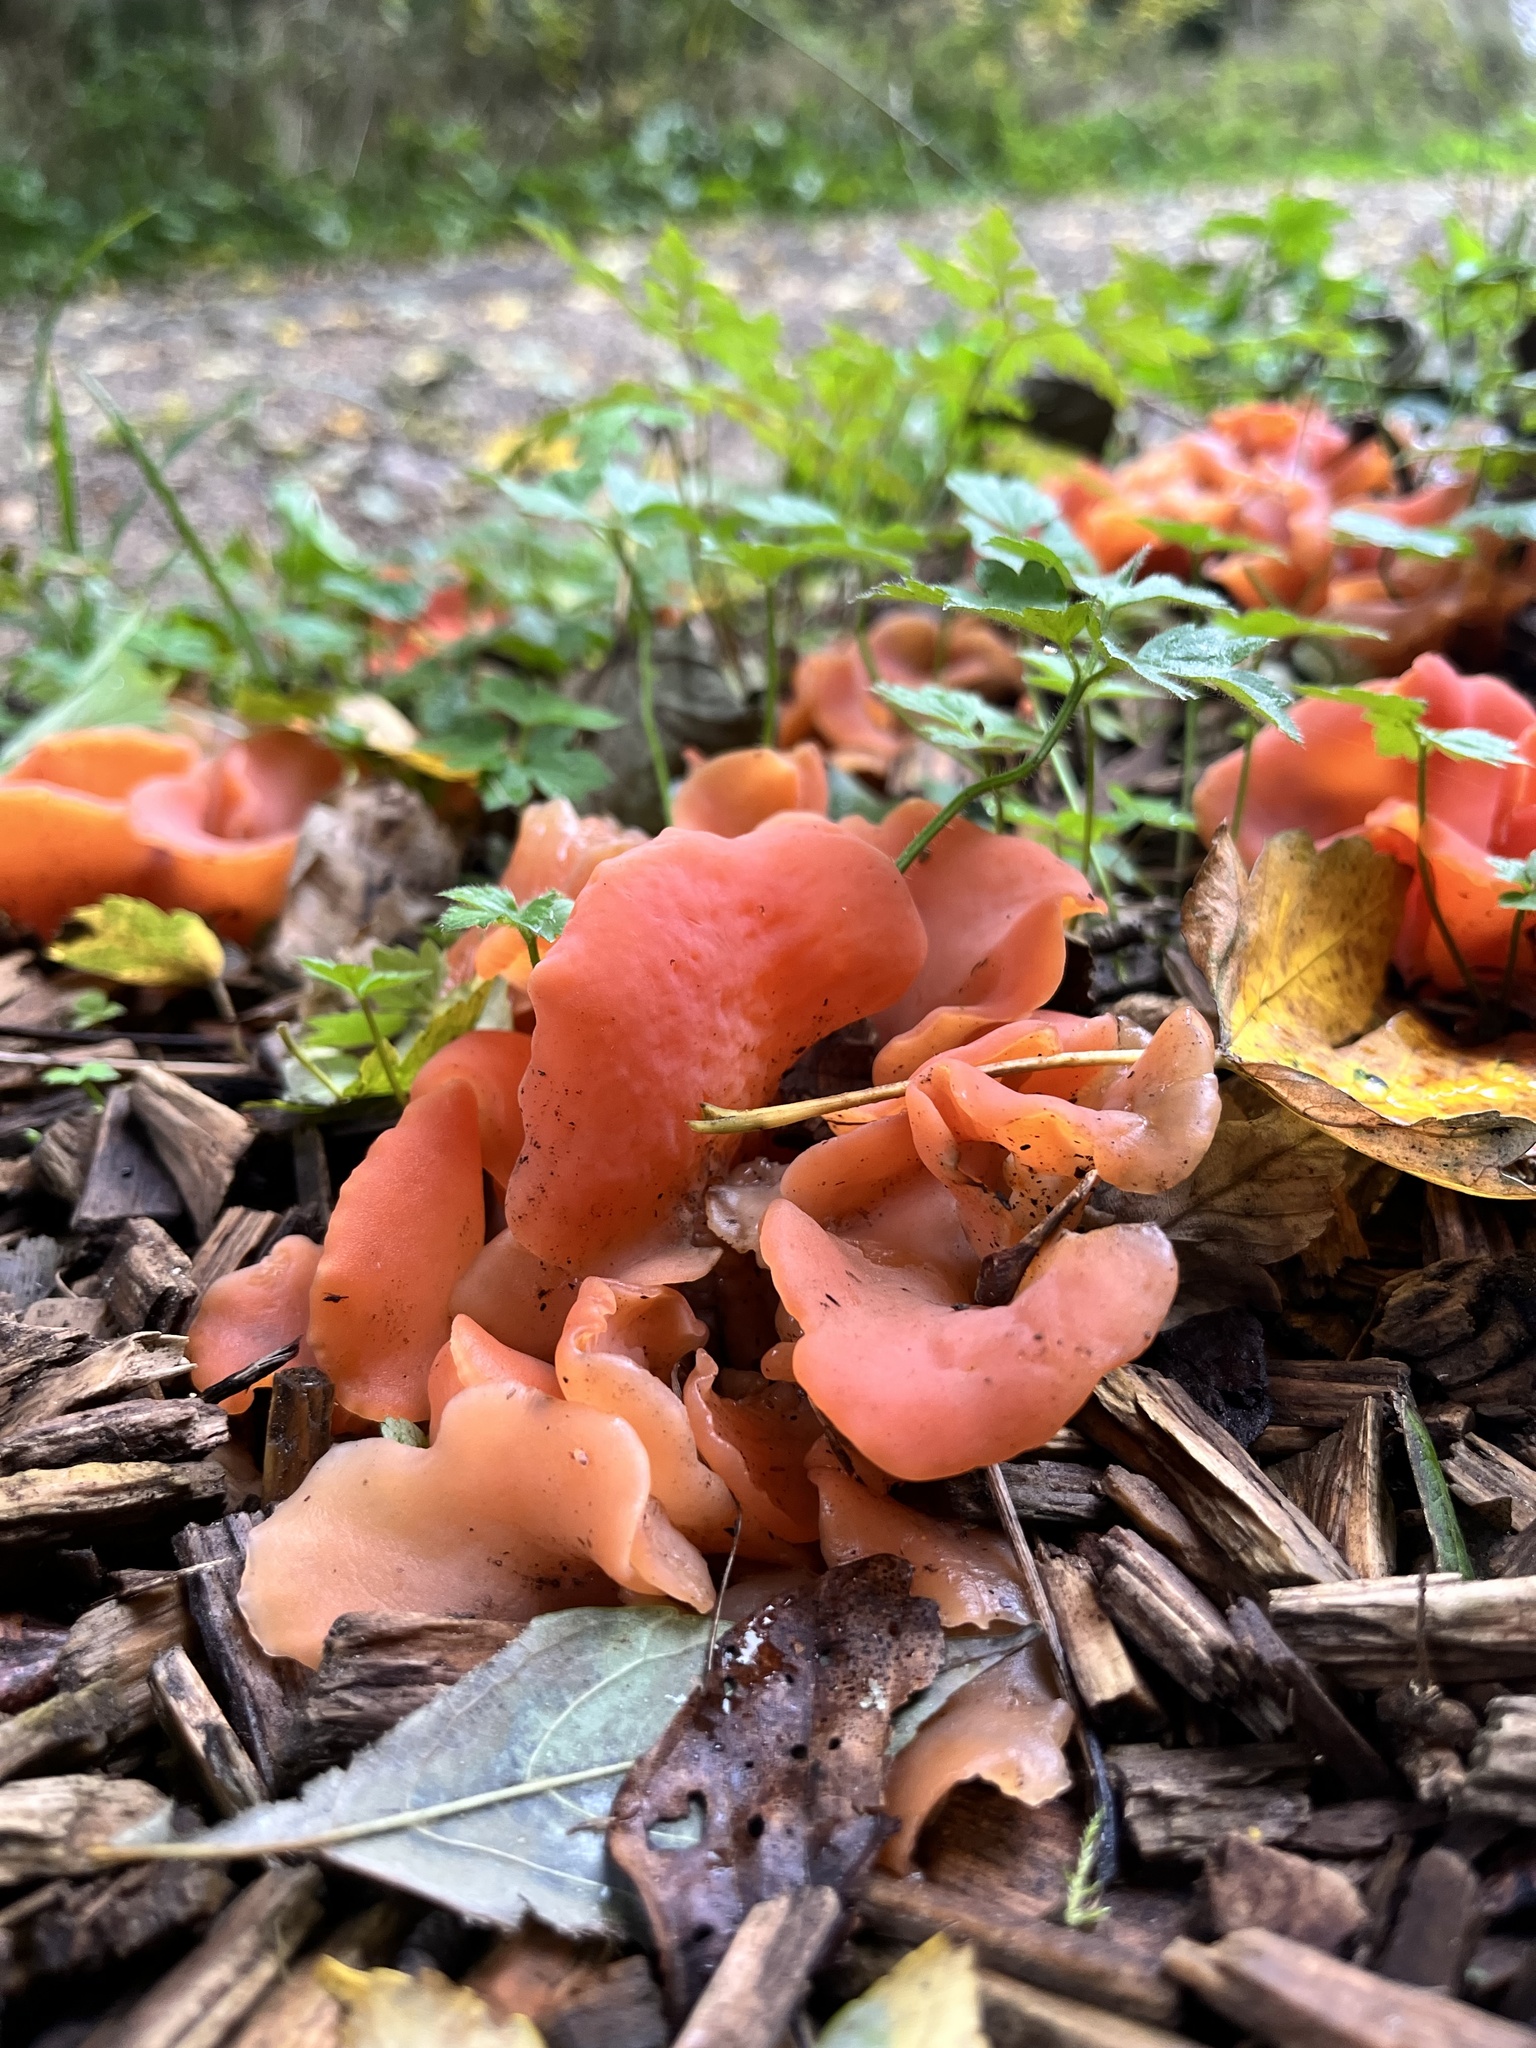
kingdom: Fungi
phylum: Basidiomycota
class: Agaricomycetes
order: Auriculariales
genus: Guepinia
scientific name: Guepinia helvelloides
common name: Salmon salad
